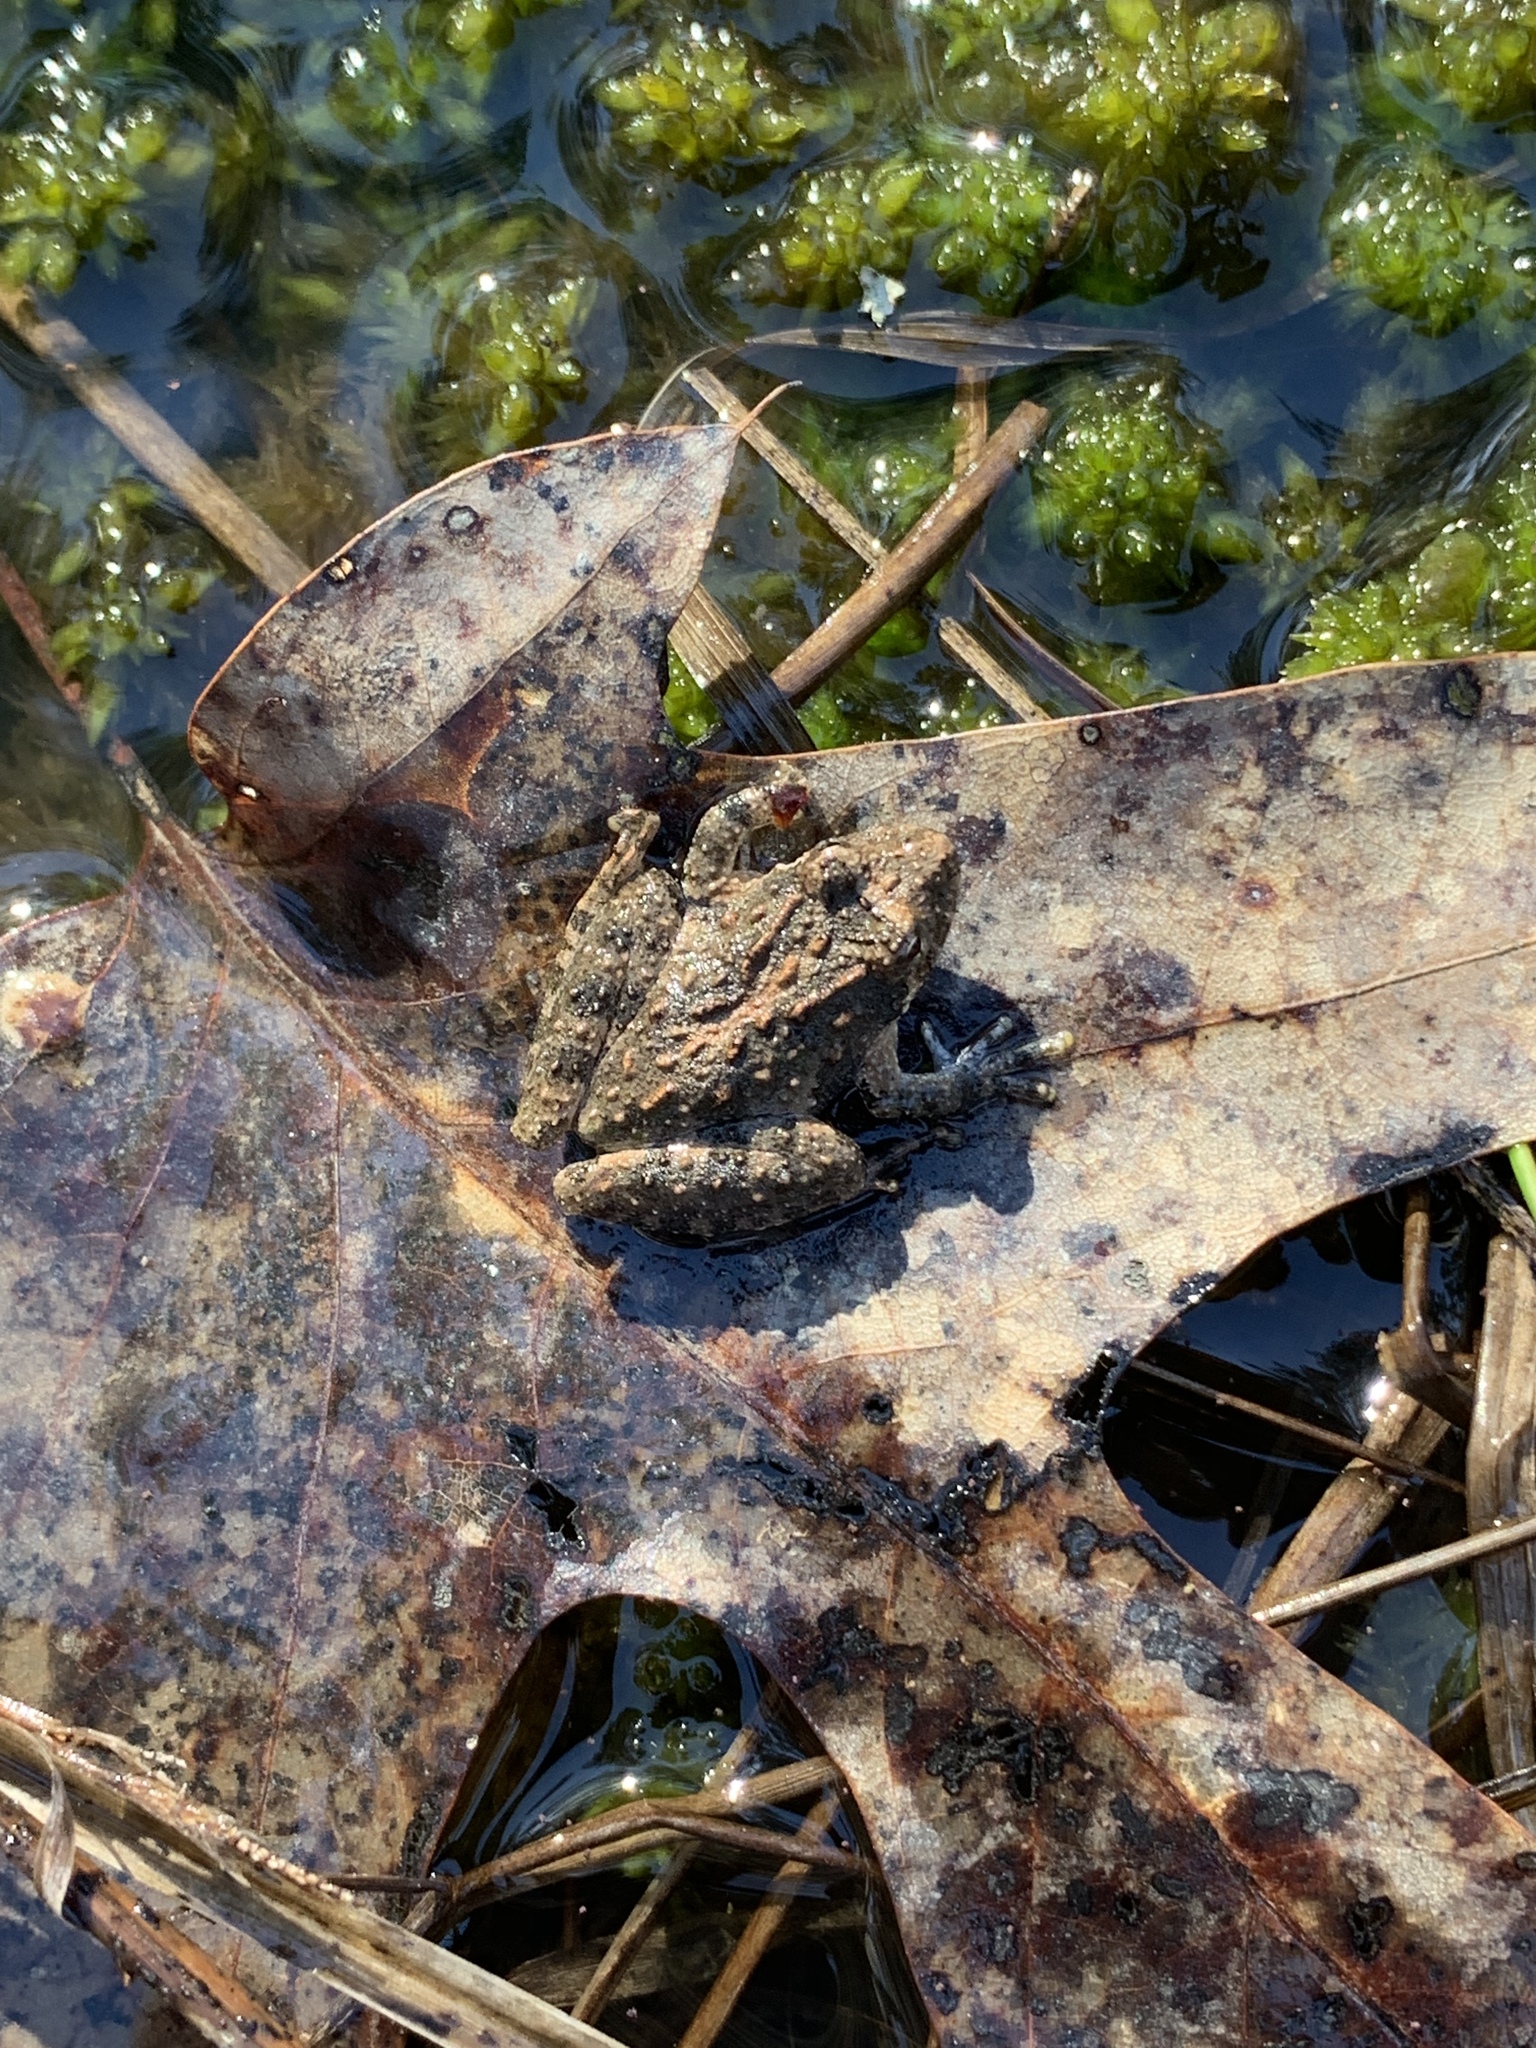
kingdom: Animalia
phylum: Chordata
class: Amphibia
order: Anura
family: Hylidae
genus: Acris
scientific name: Acris crepitans
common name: Northern cricket frog
